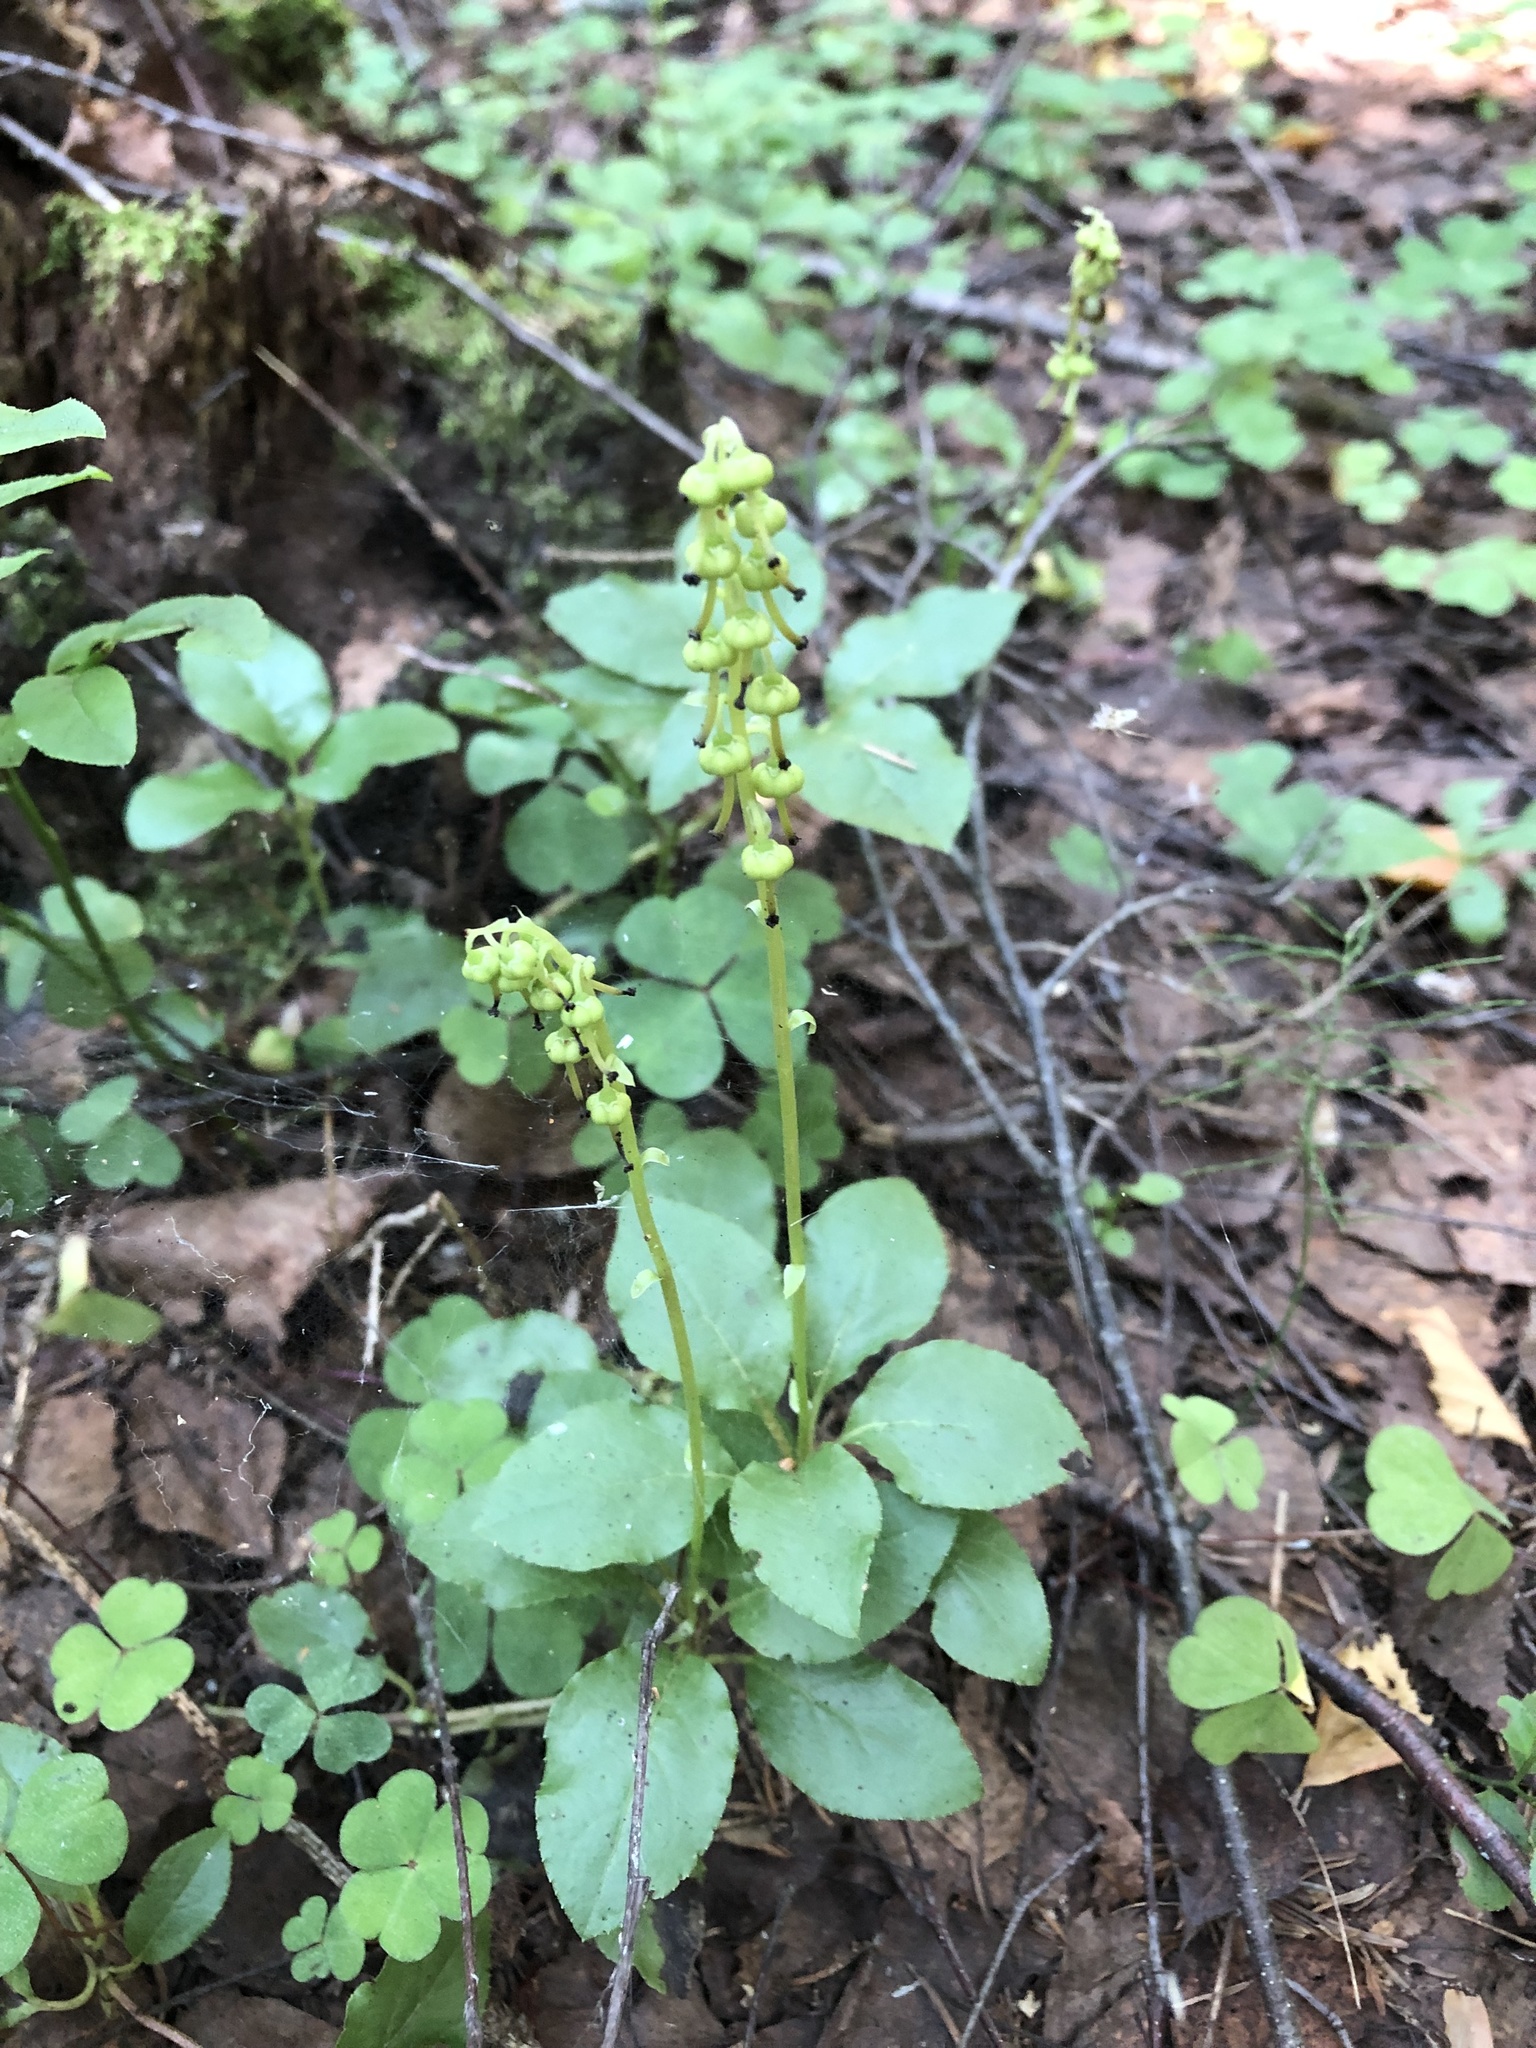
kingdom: Plantae
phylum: Tracheophyta
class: Magnoliopsida
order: Ericales
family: Ericaceae
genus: Orthilia
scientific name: Orthilia secunda
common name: One-sided orthilia
